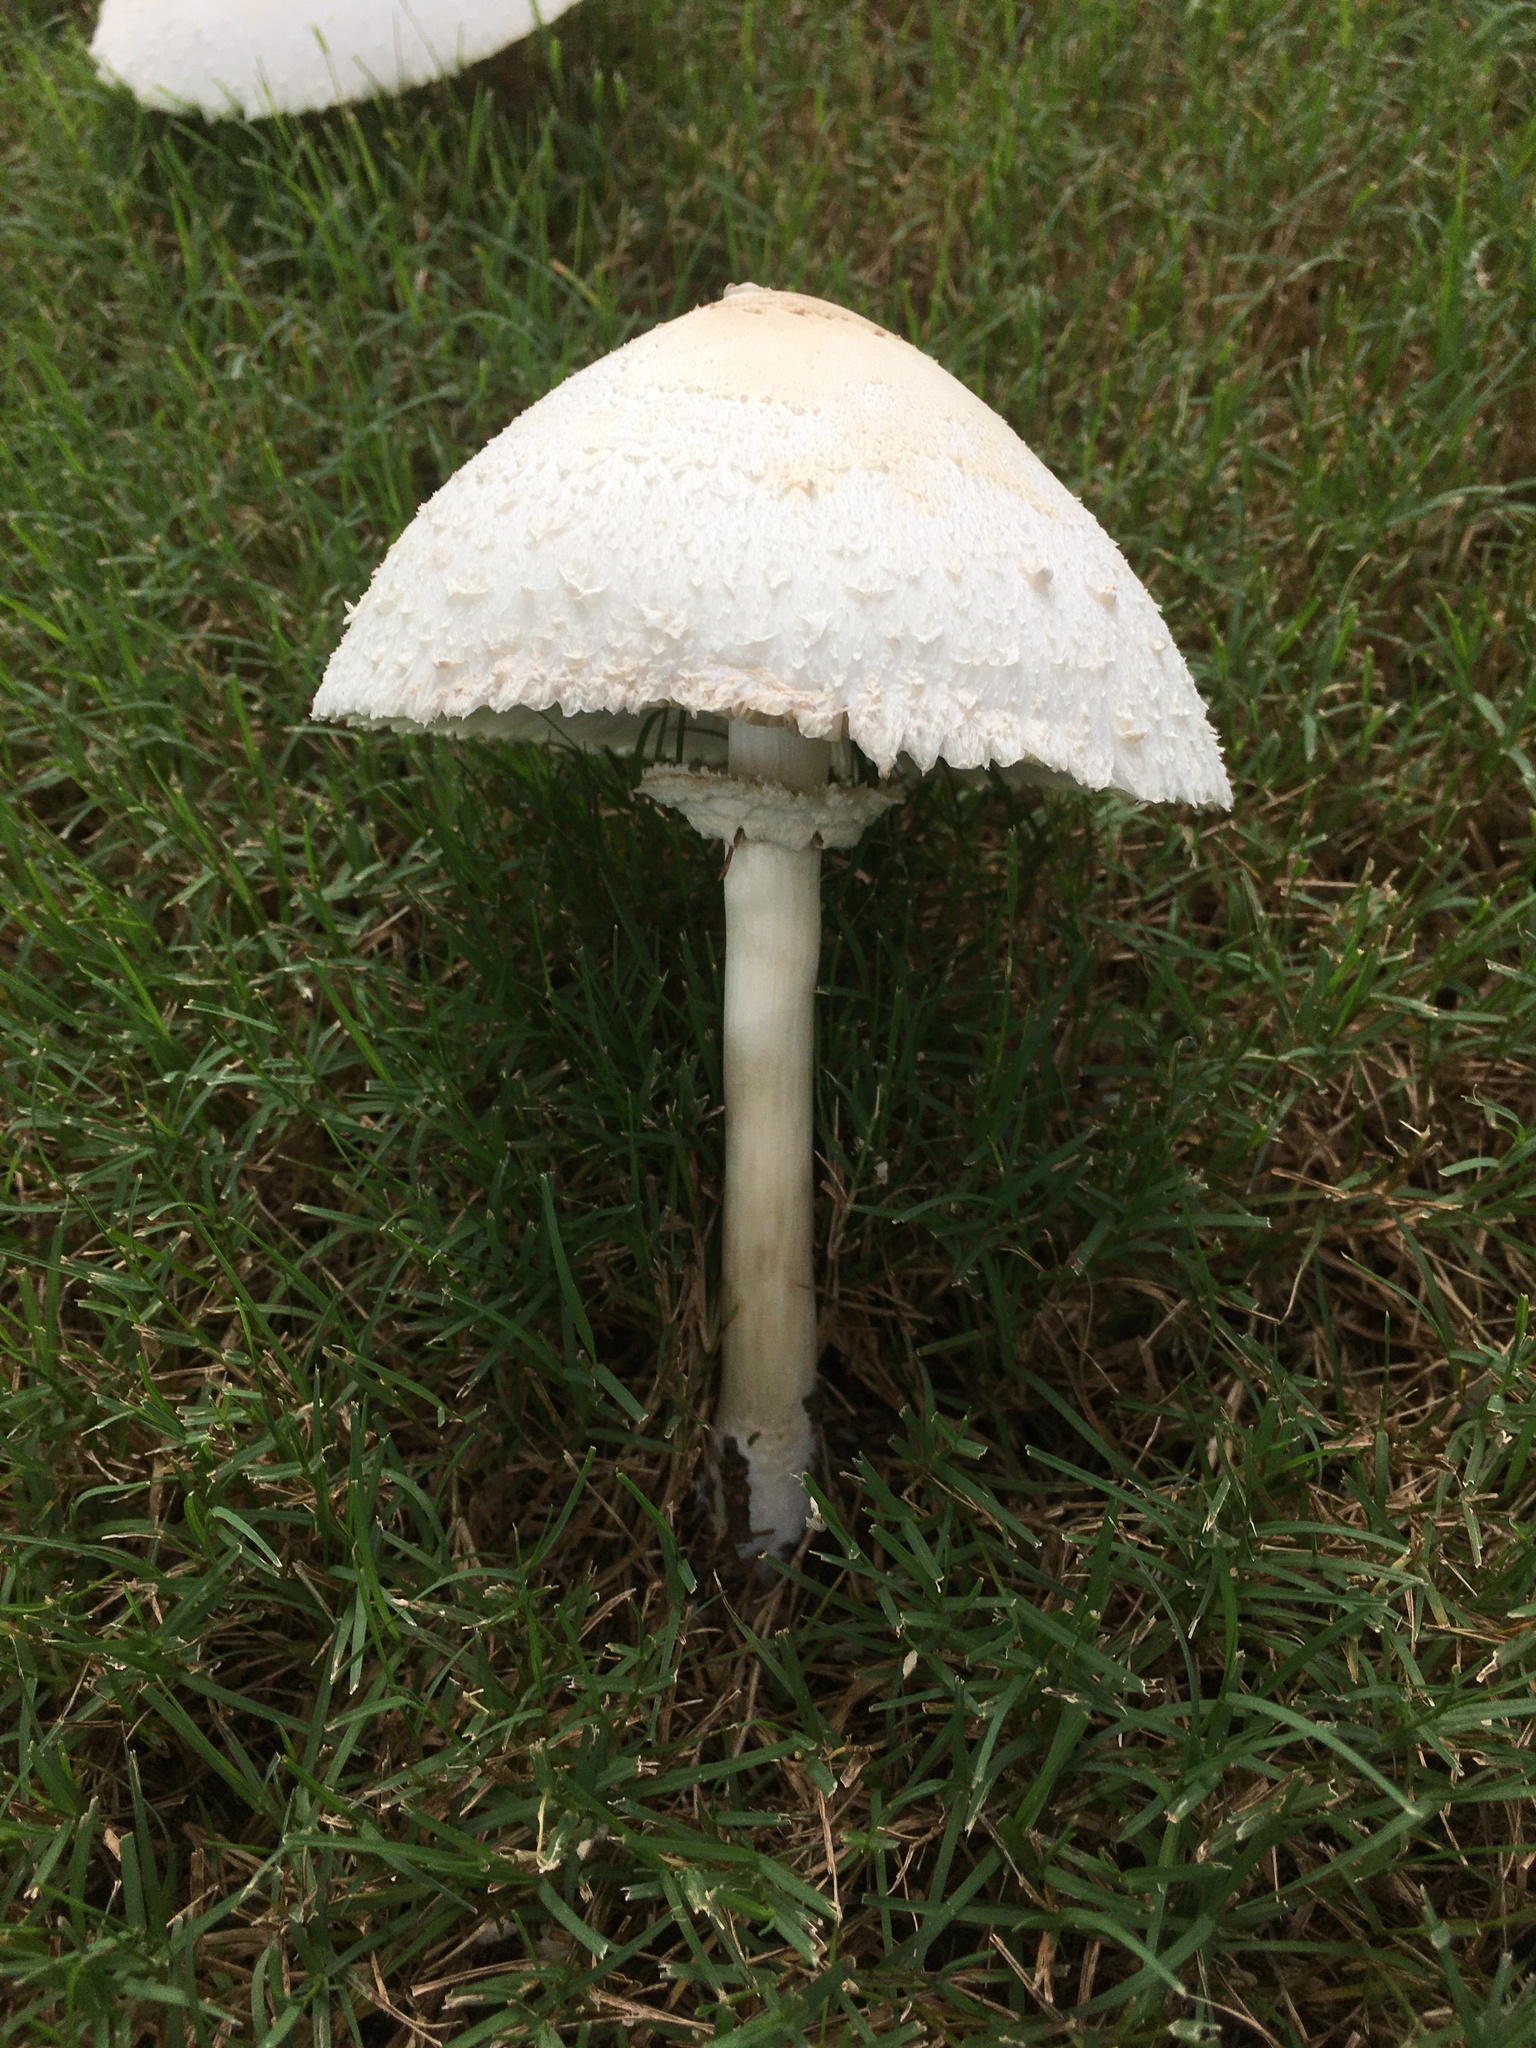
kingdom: Fungi
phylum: Basidiomycota
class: Agaricomycetes
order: Agaricales
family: Agaricaceae
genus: Chlorophyllum
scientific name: Chlorophyllum molybdites
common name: False parasol
